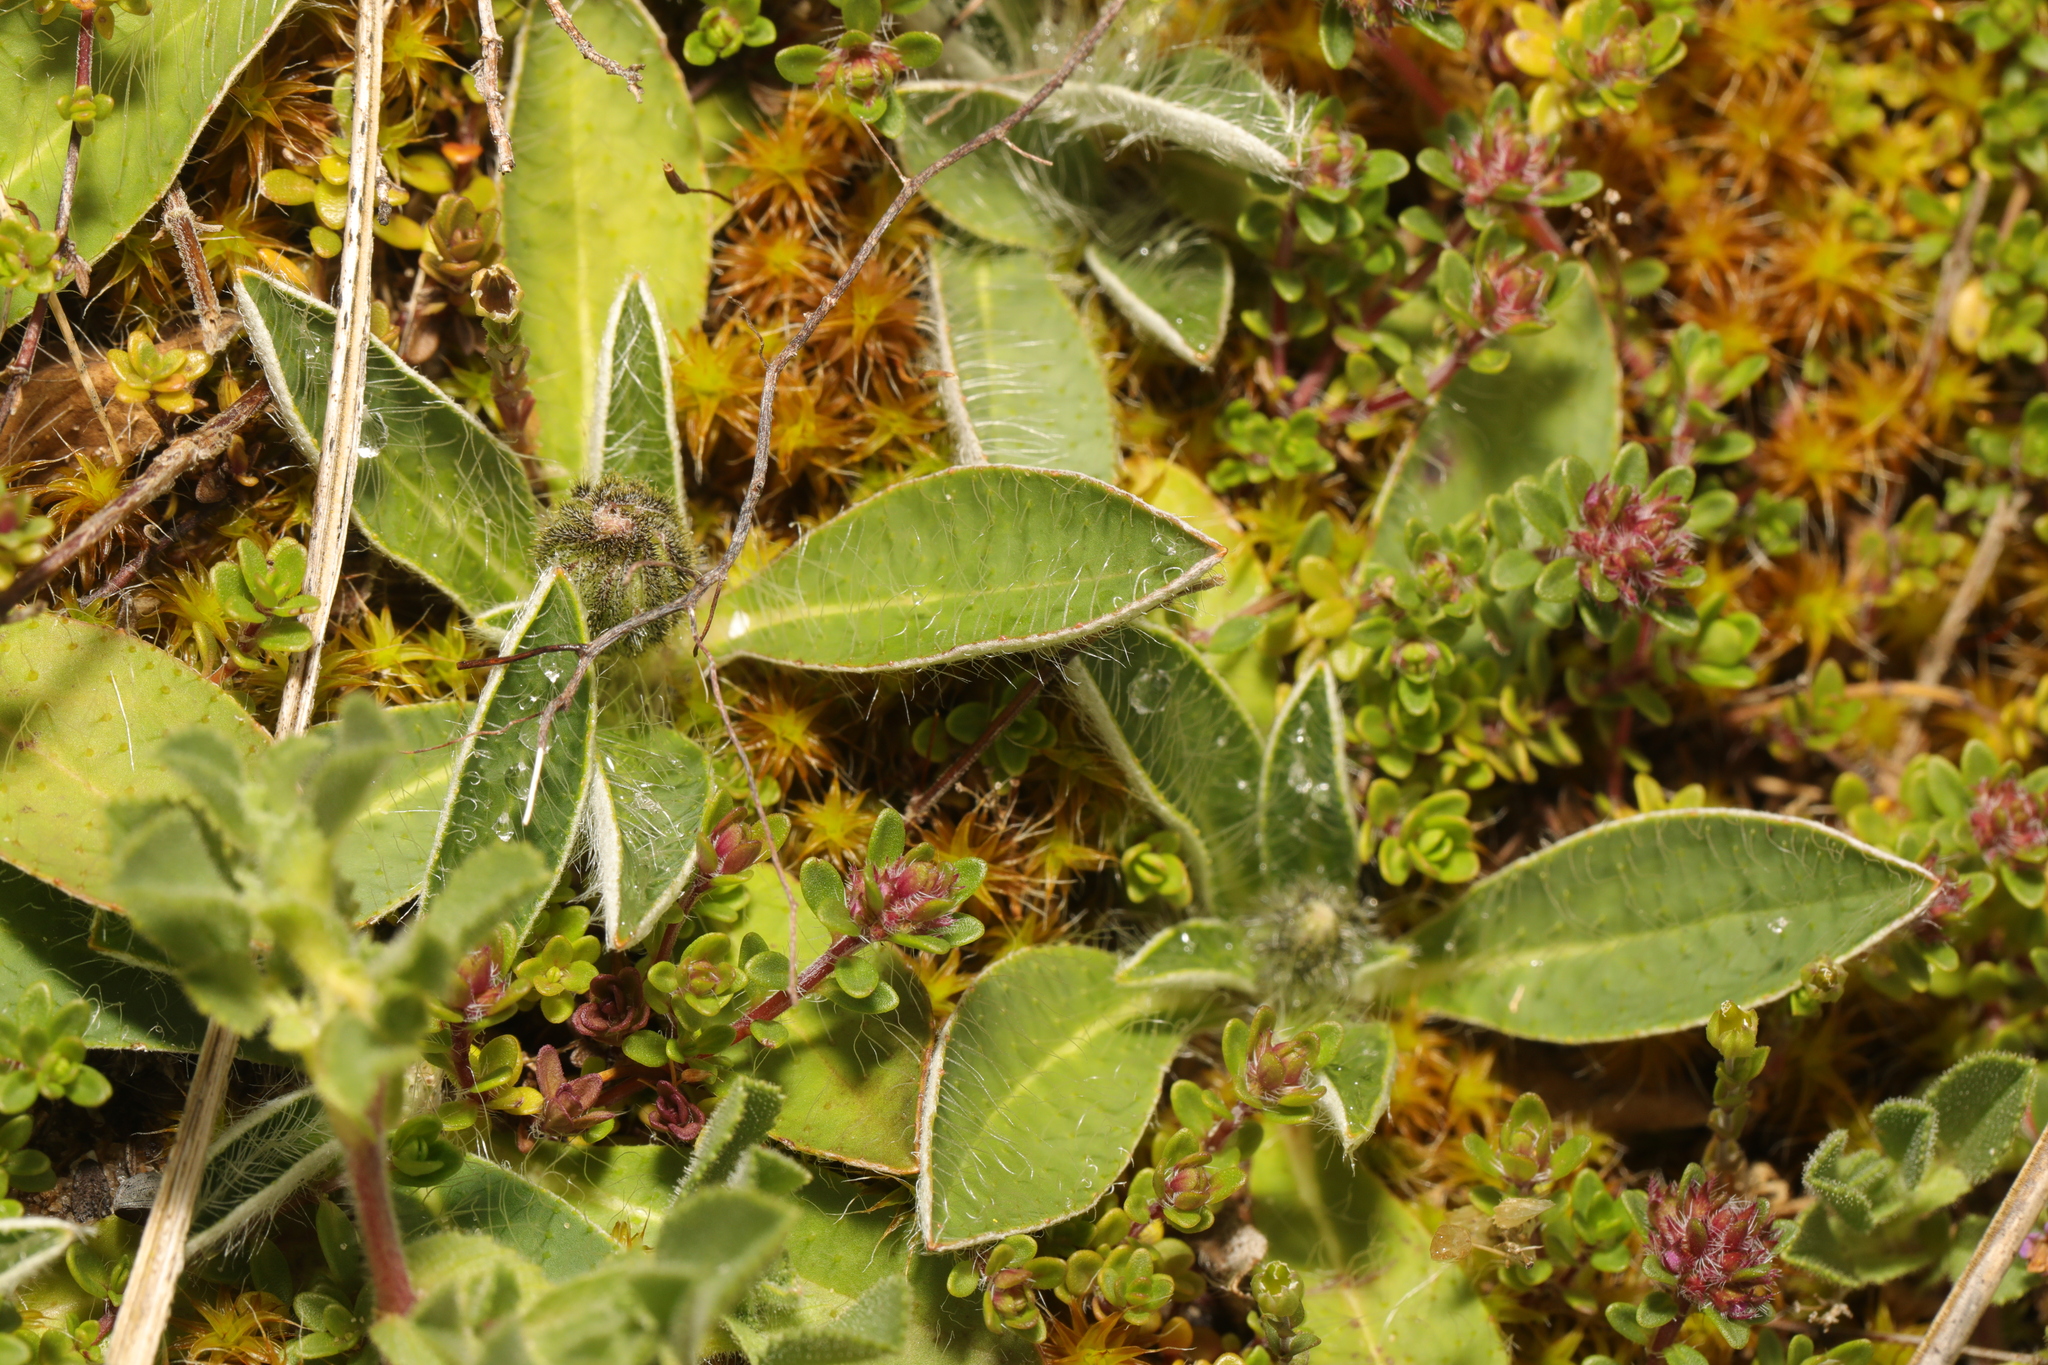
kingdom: Plantae
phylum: Tracheophyta
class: Magnoliopsida
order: Asterales
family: Asteraceae
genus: Pilosella
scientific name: Pilosella officinarum
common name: Mouse-ear hawkweed
